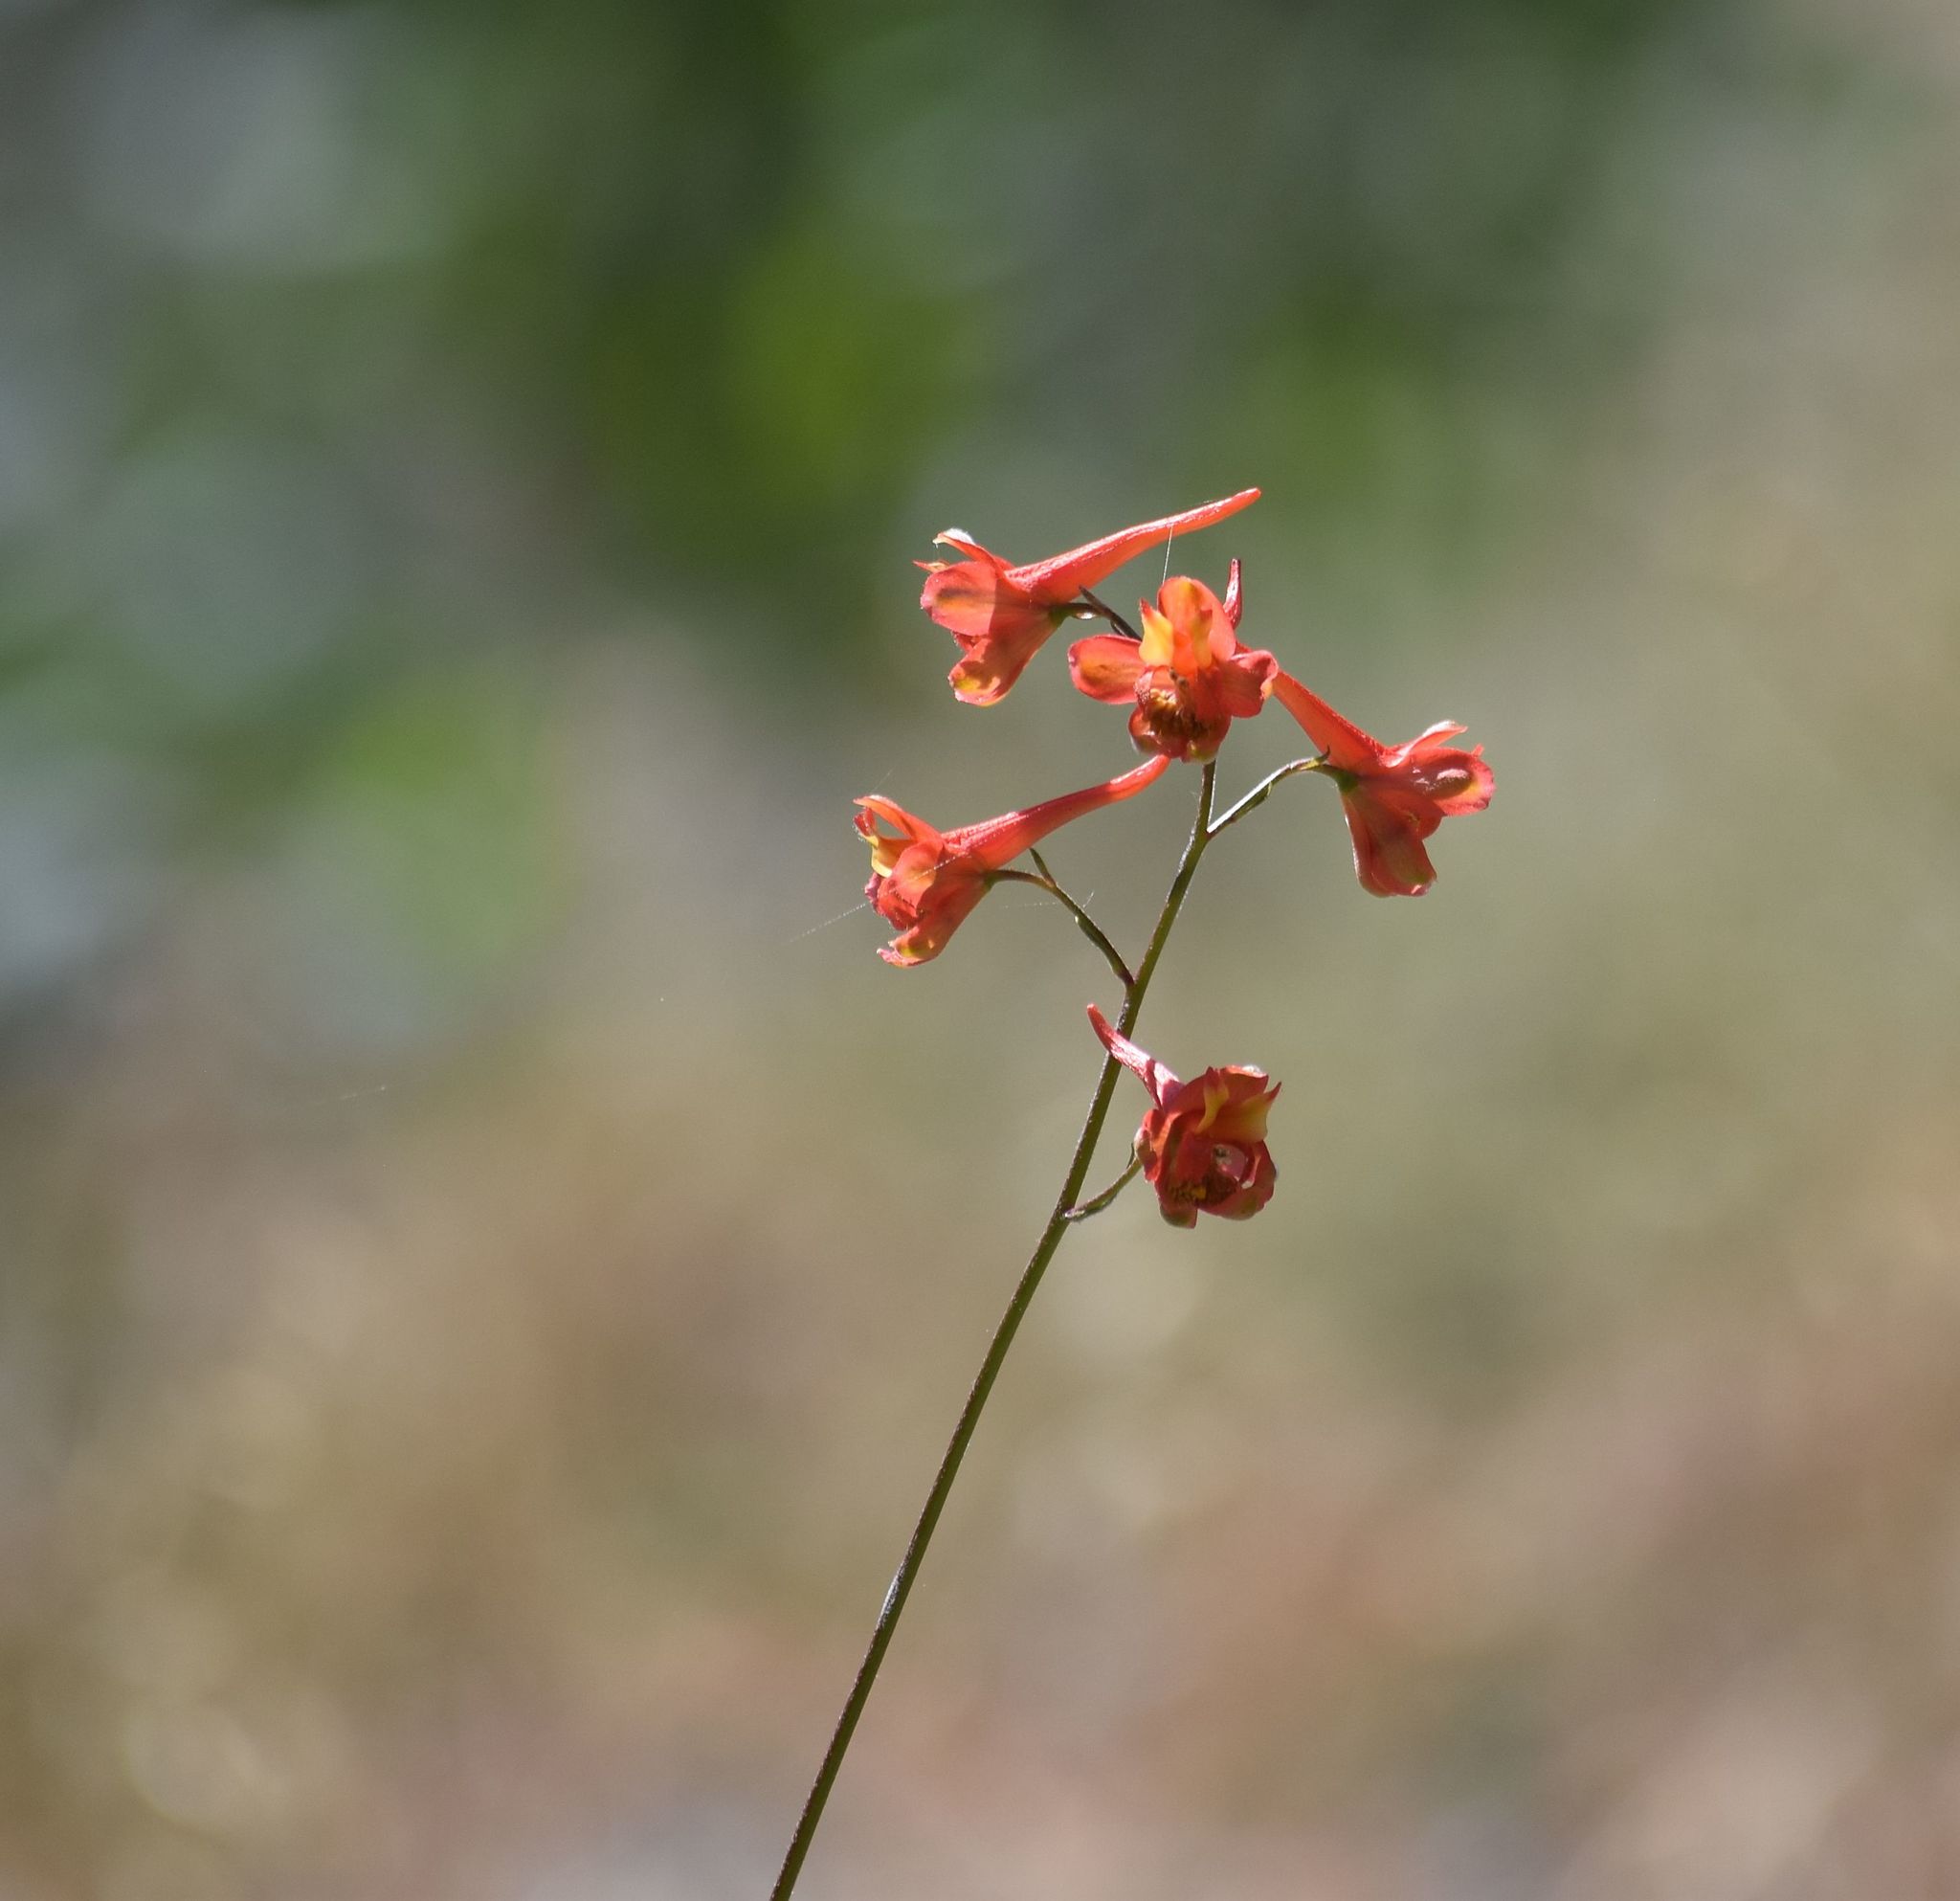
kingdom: Plantae
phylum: Tracheophyta
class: Magnoliopsida
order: Ranunculales
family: Ranunculaceae
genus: Delphinium
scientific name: Delphinium cardinale
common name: Scarlet larkspur
